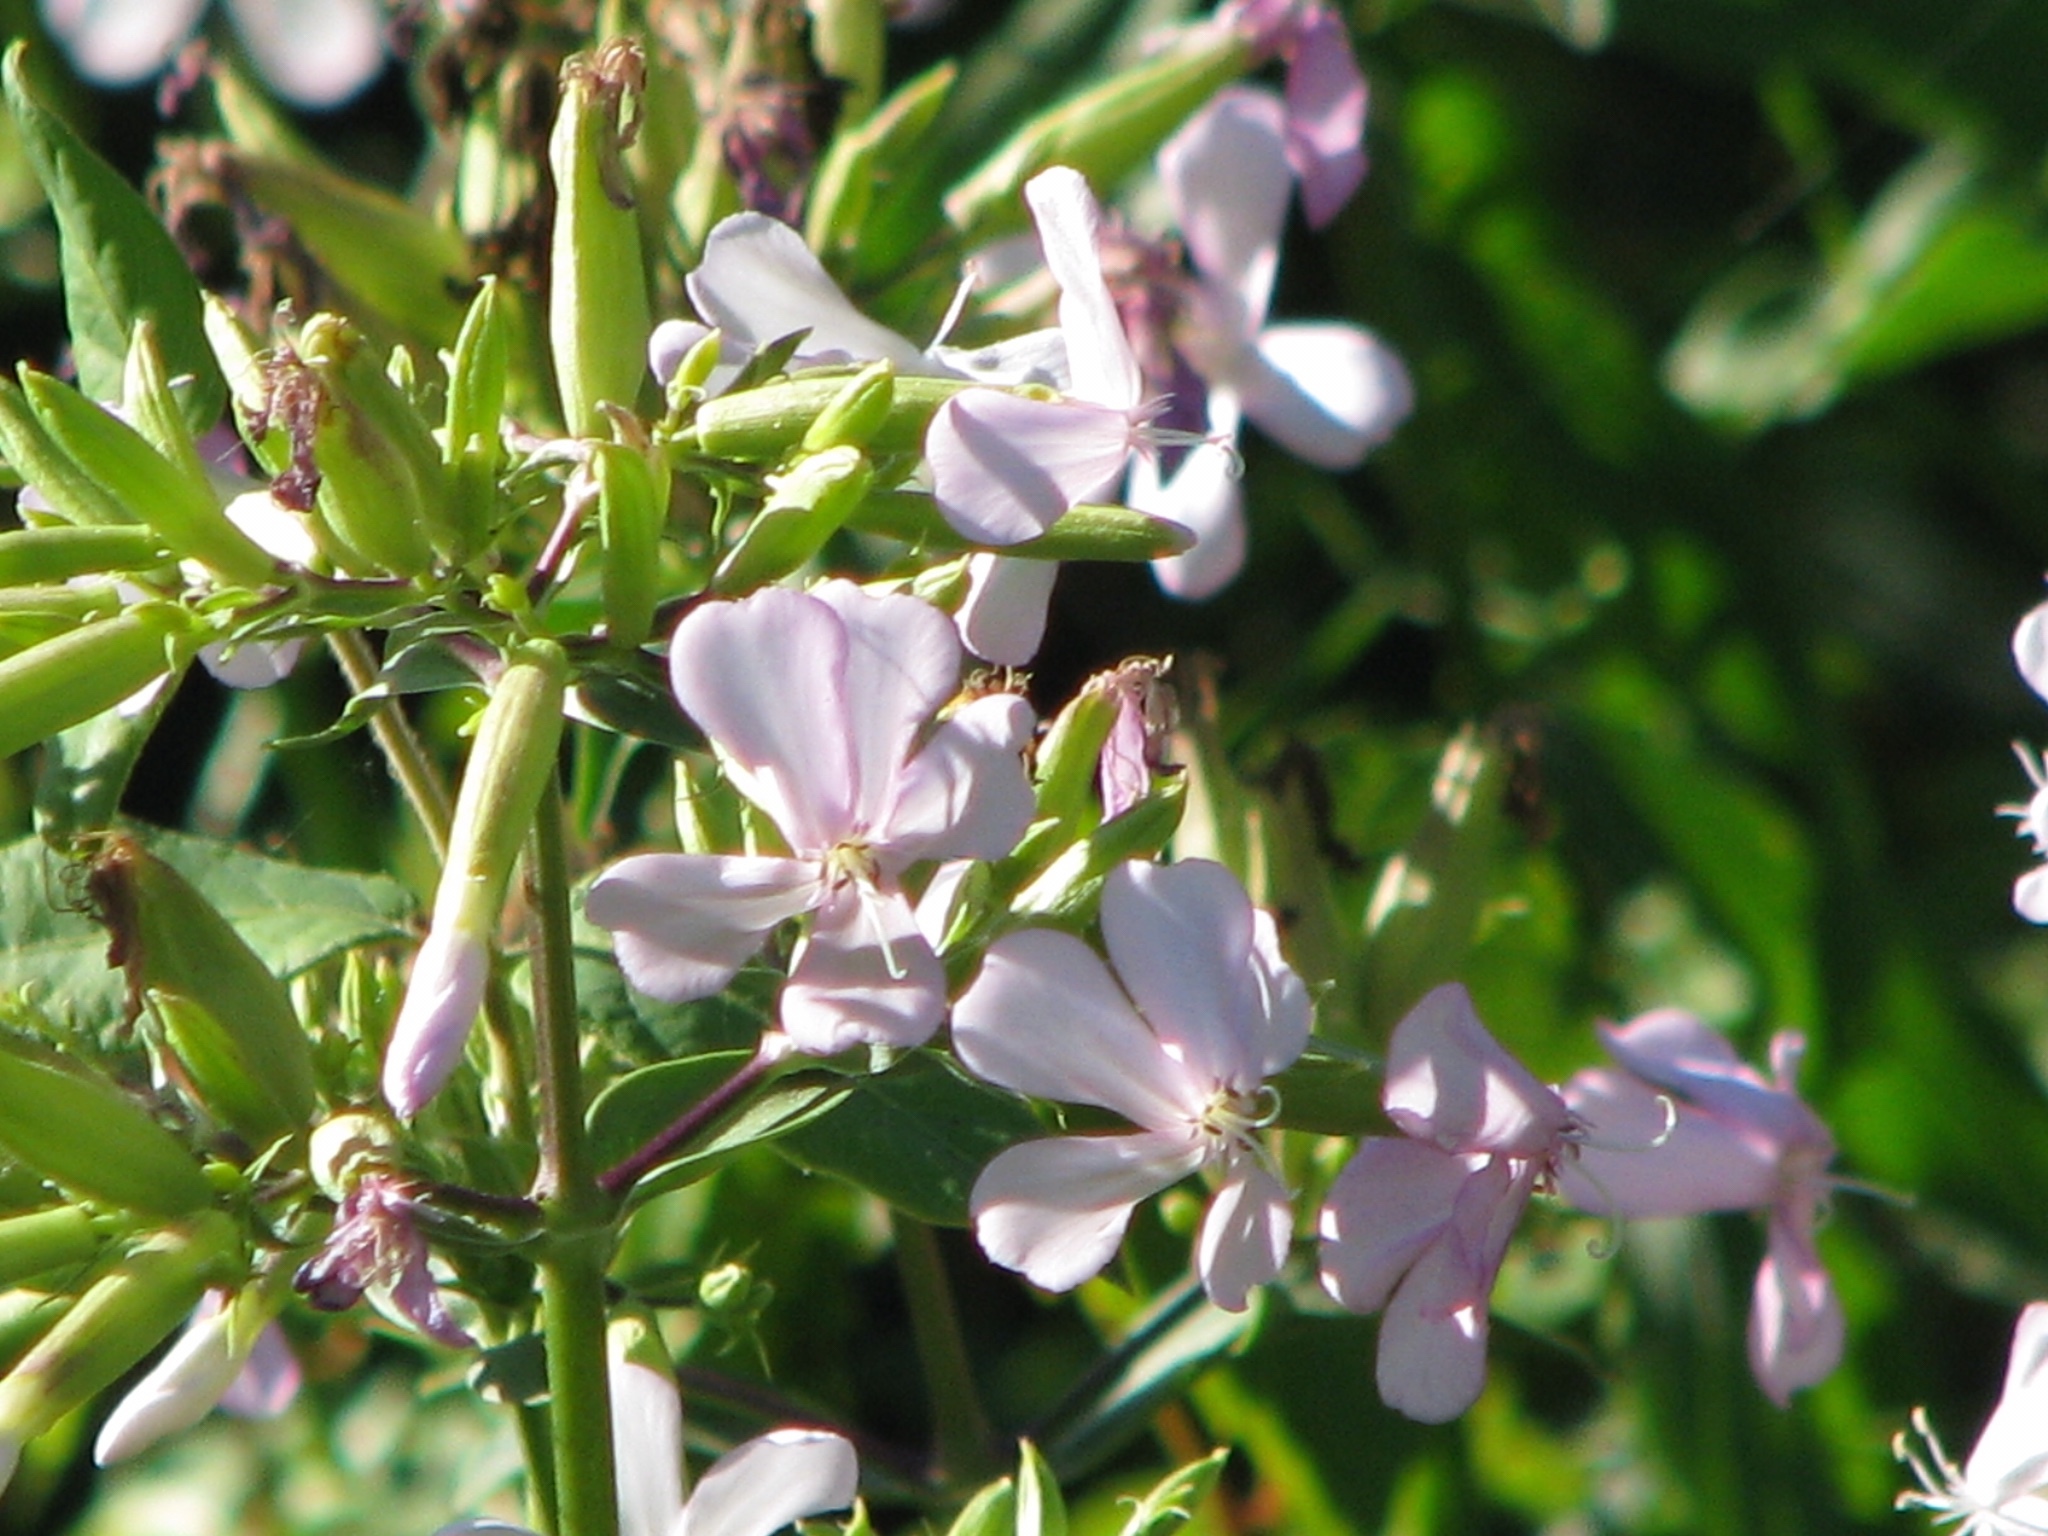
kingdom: Plantae
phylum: Tracheophyta
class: Magnoliopsida
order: Caryophyllales
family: Caryophyllaceae
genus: Saponaria
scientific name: Saponaria officinalis
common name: Soapwort
